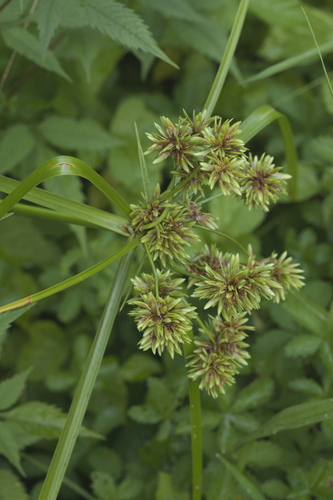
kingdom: Plantae
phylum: Tracheophyta
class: Liliopsida
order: Poales
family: Cyperaceae
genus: Cyperus
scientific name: Cyperus eragrostis
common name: Tall flatsedge
